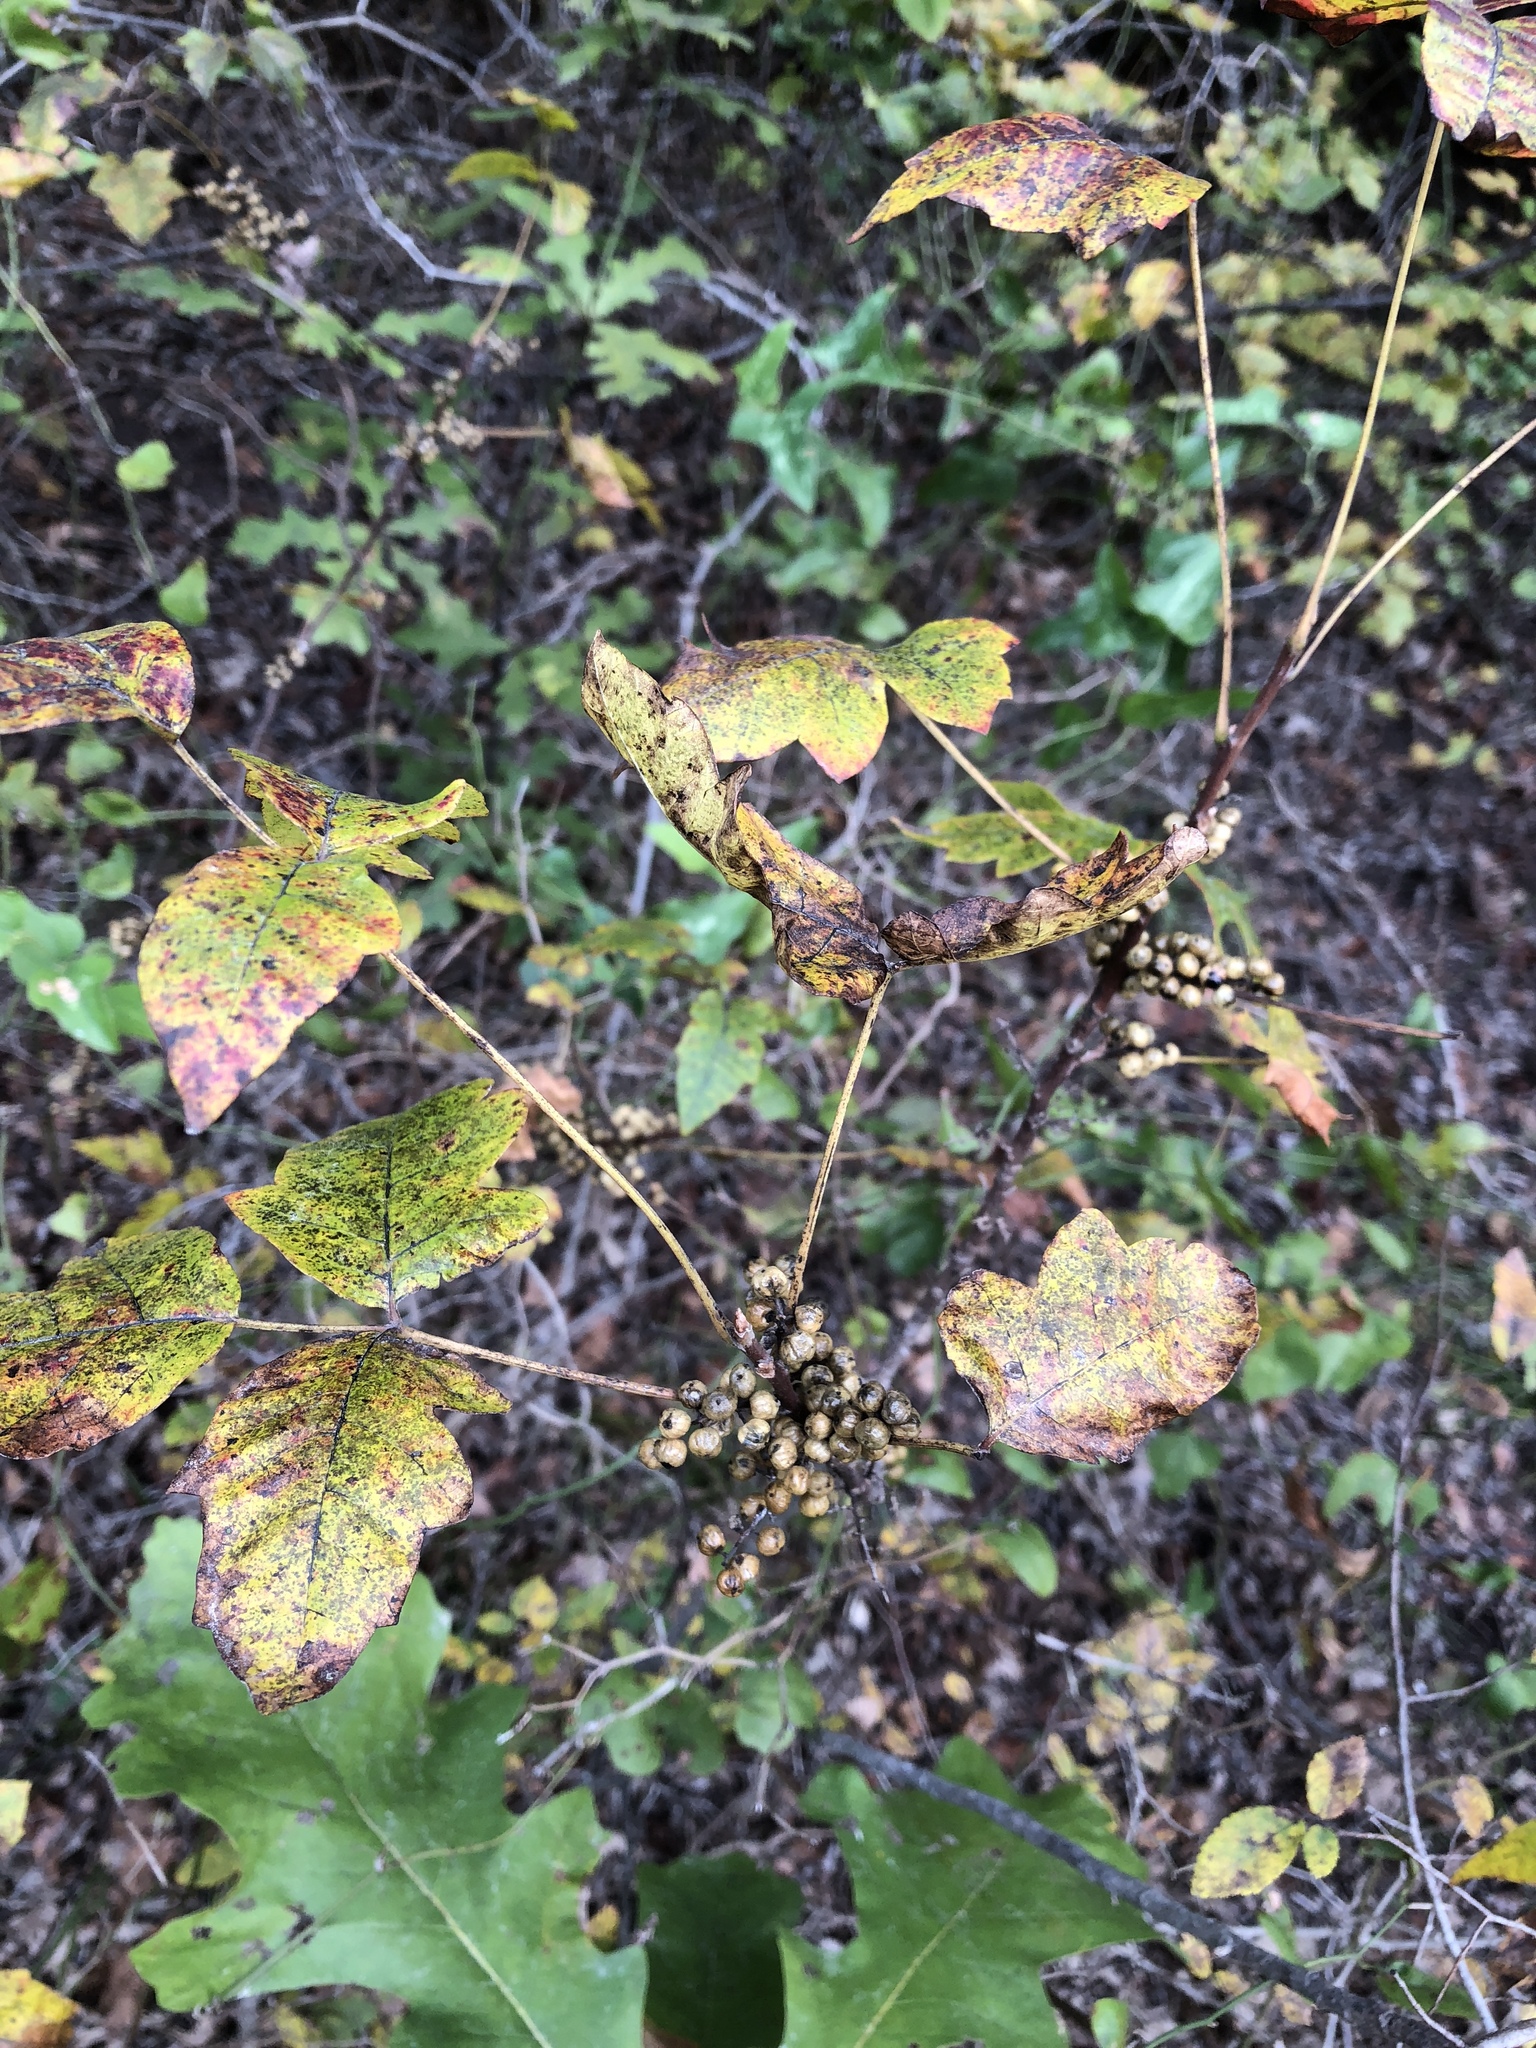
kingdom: Plantae
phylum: Tracheophyta
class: Magnoliopsida
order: Sapindales
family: Anacardiaceae
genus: Toxicodendron
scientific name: Toxicodendron radicans
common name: Poison ivy
